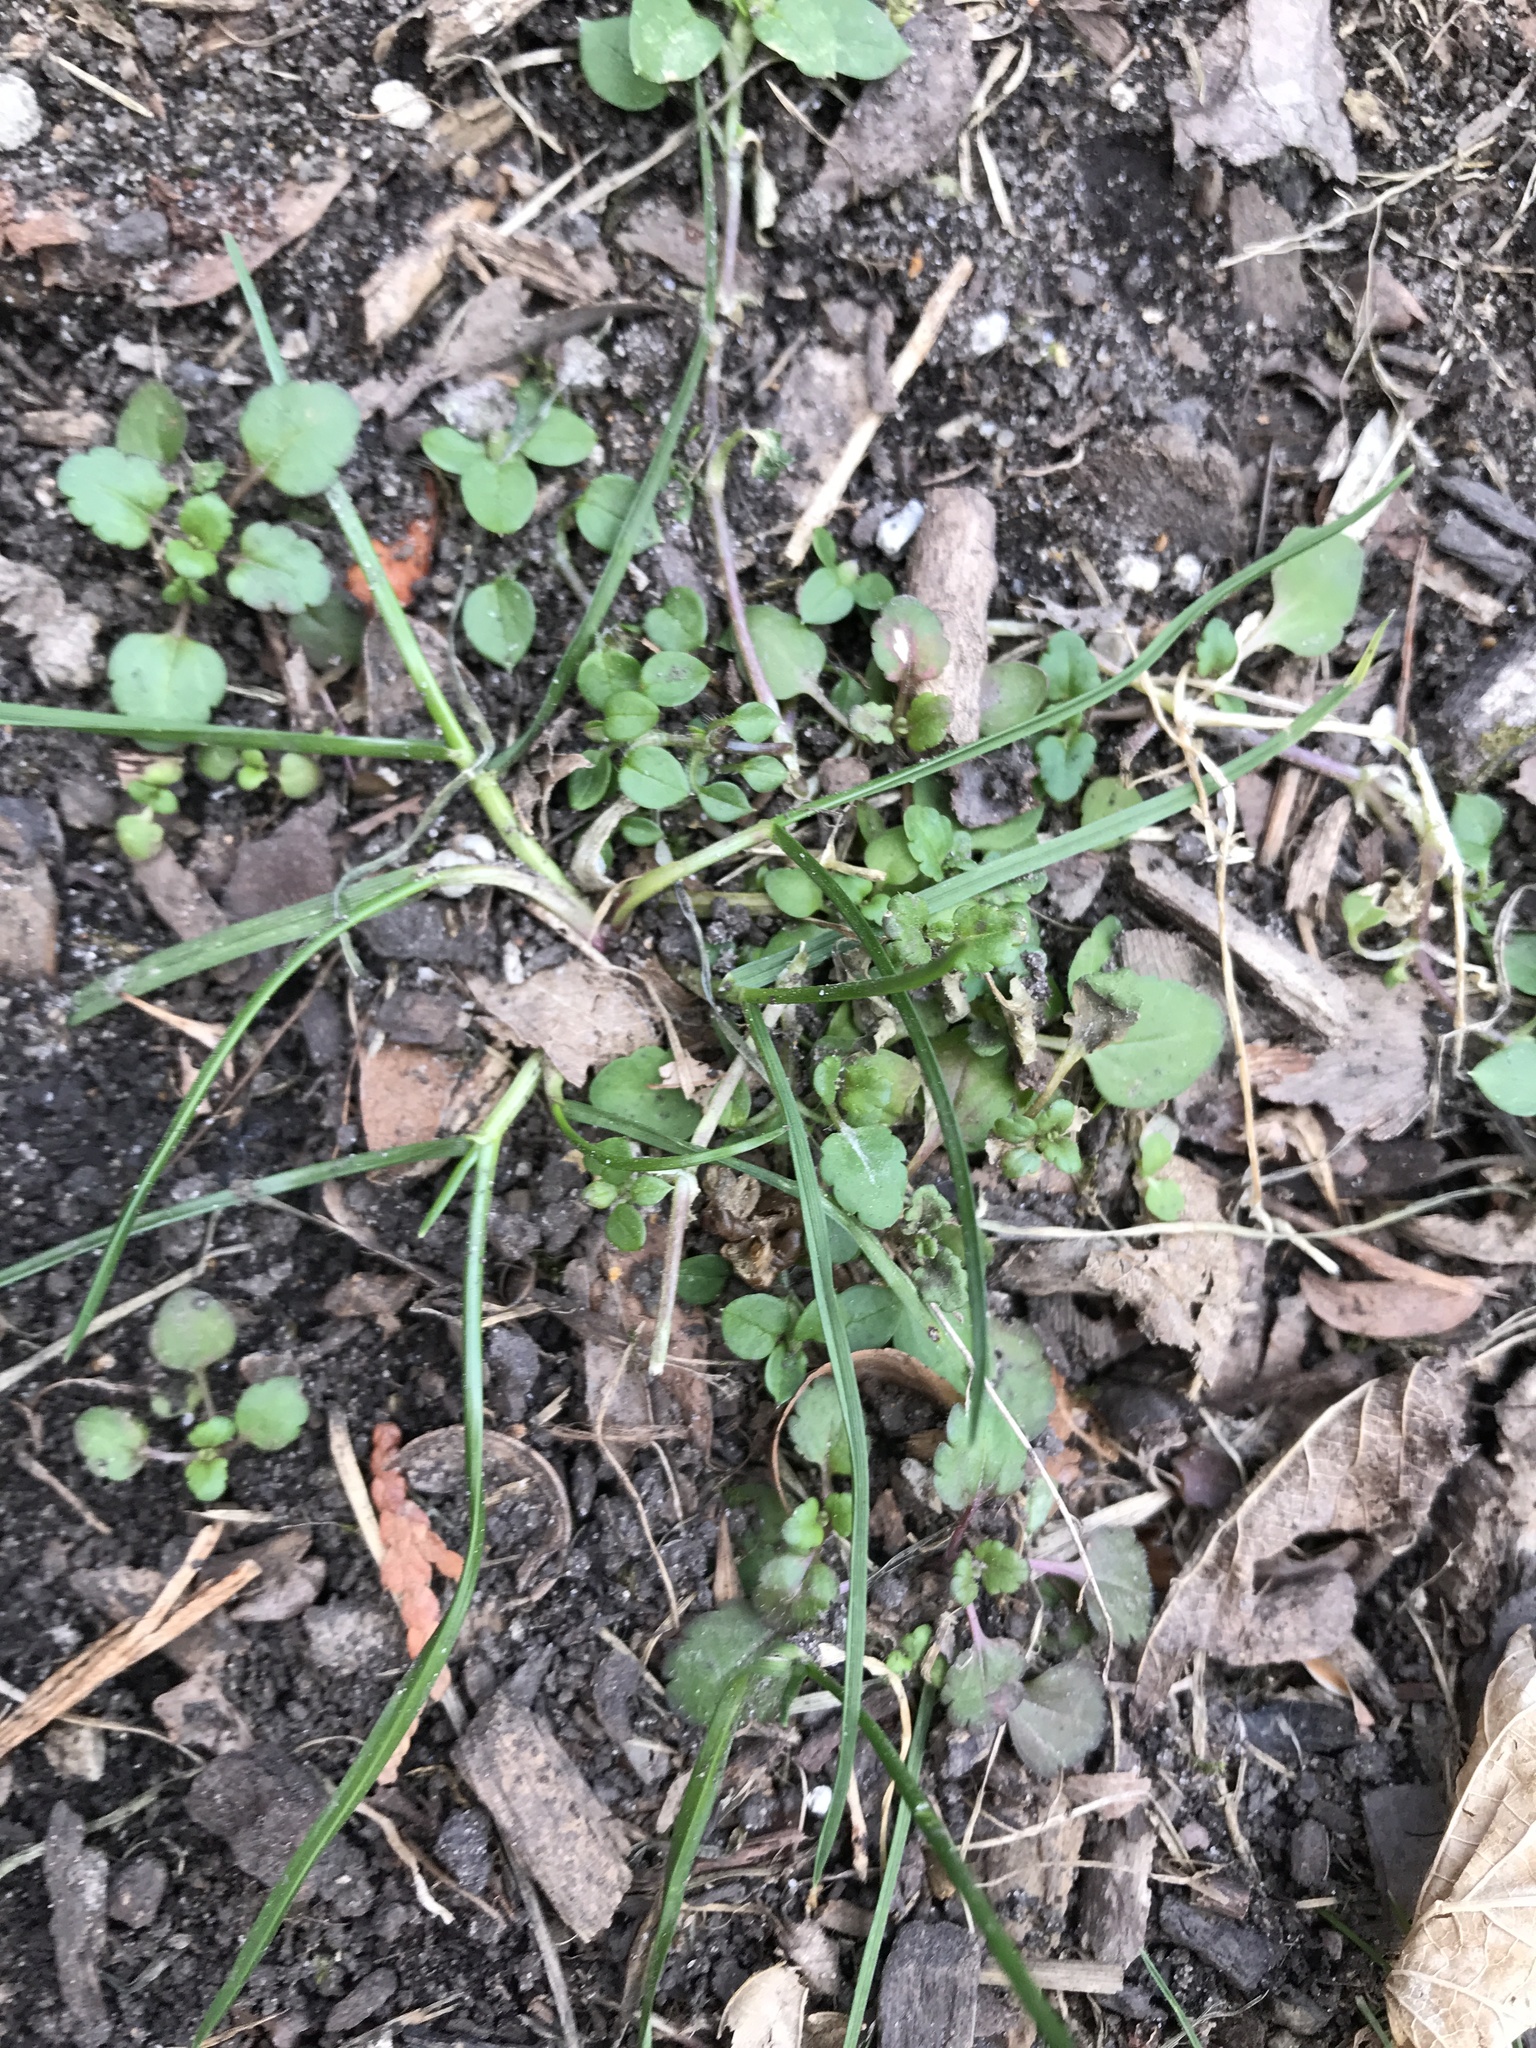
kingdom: Plantae
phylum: Tracheophyta
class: Magnoliopsida
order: Brassicales
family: Brassicaceae
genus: Cardamine
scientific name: Cardamine hirsuta
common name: Hairy bittercress
